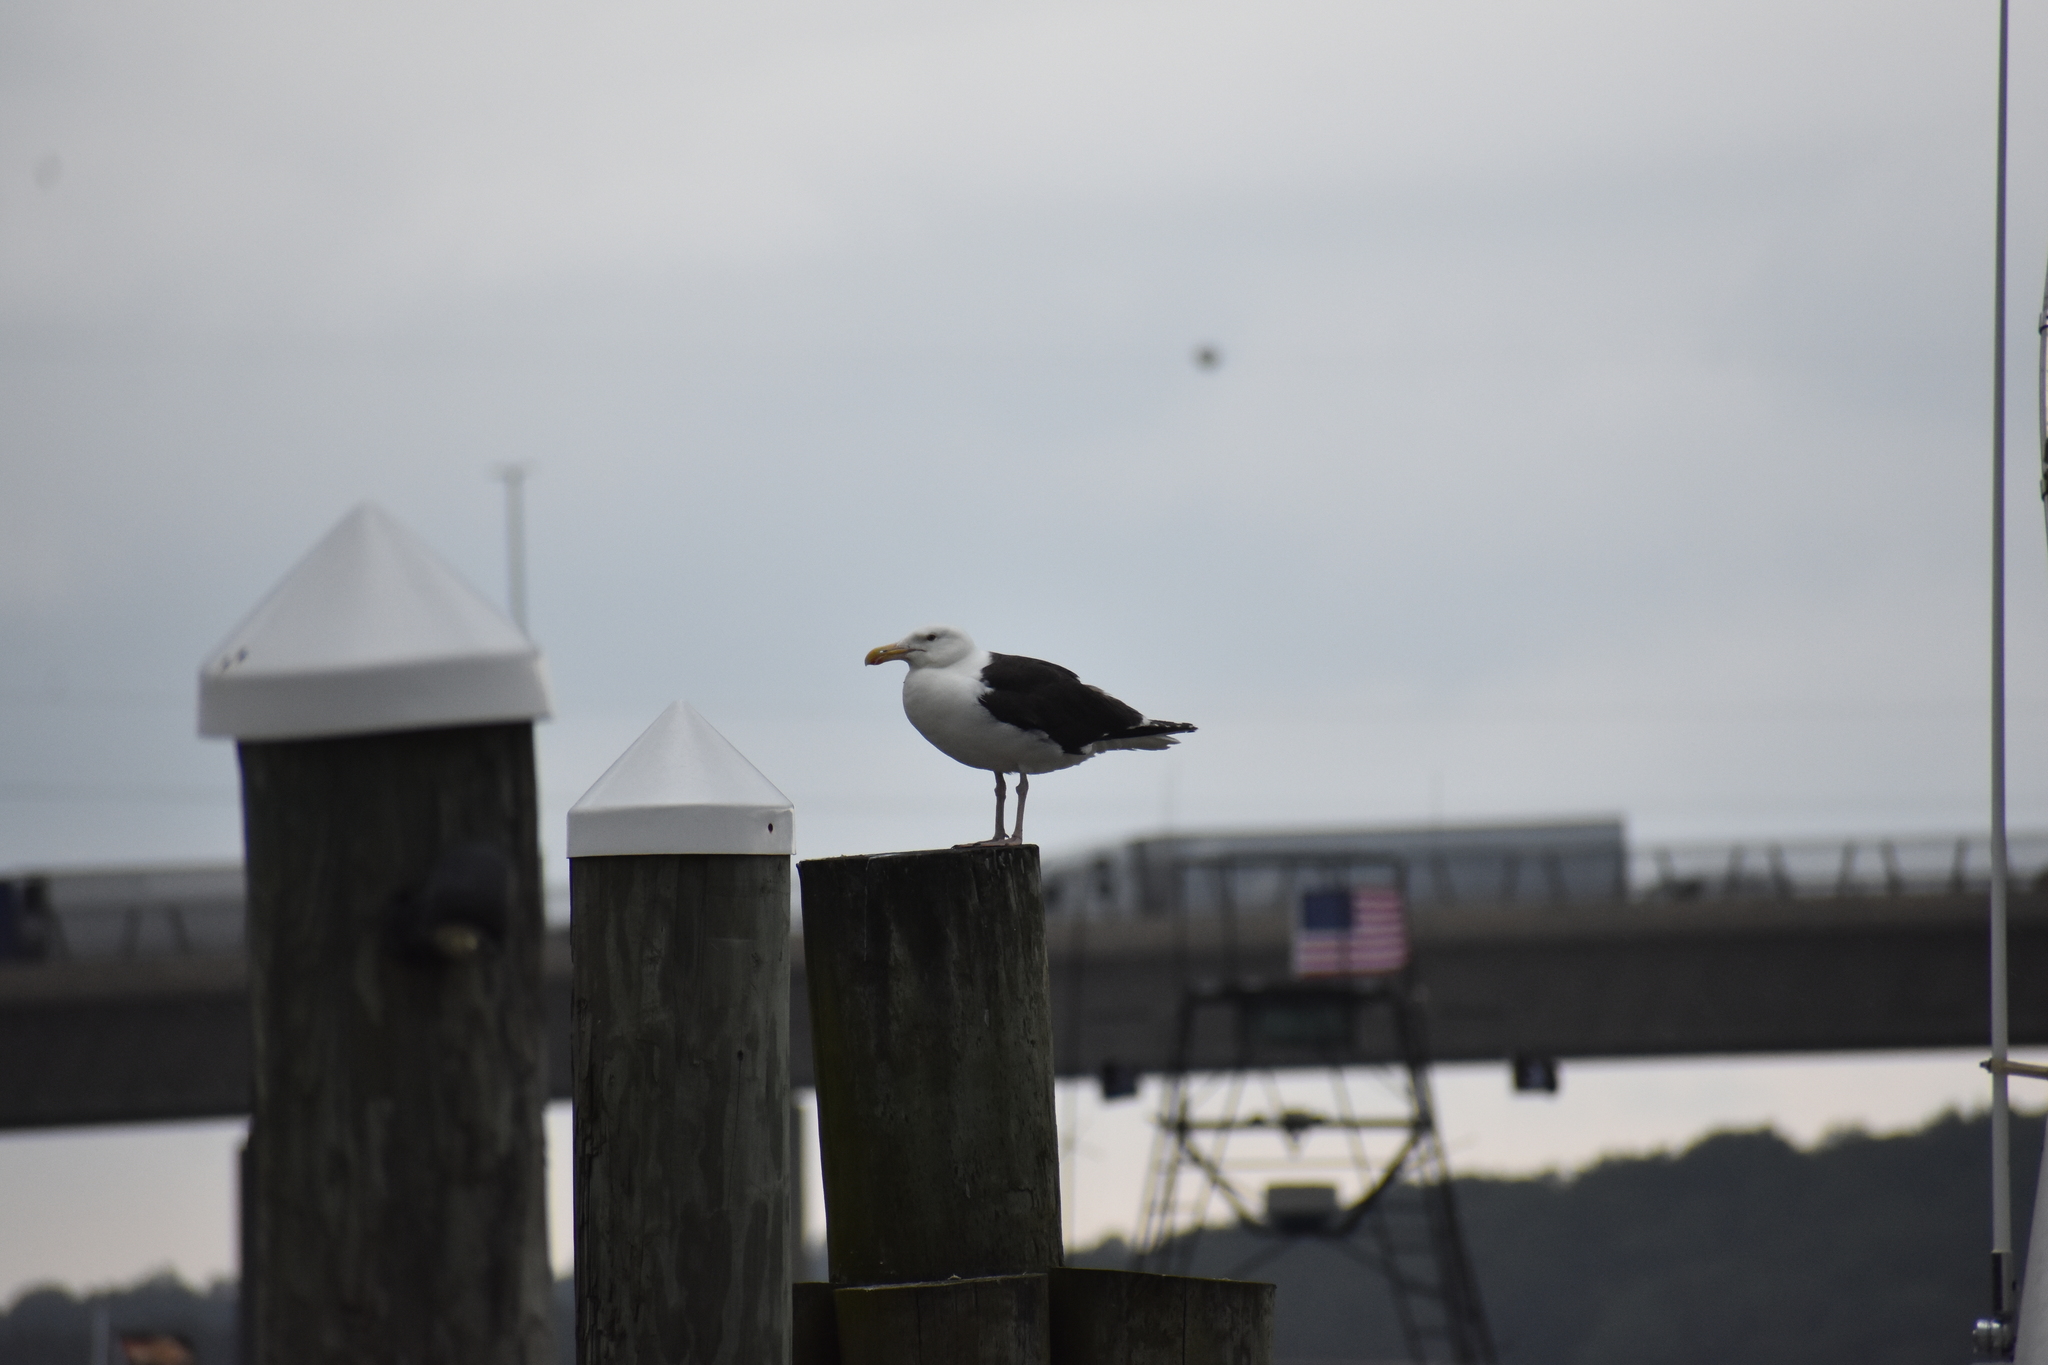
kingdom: Animalia
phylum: Chordata
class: Aves
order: Charadriiformes
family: Laridae
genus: Larus
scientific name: Larus marinus
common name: Great black-backed gull
